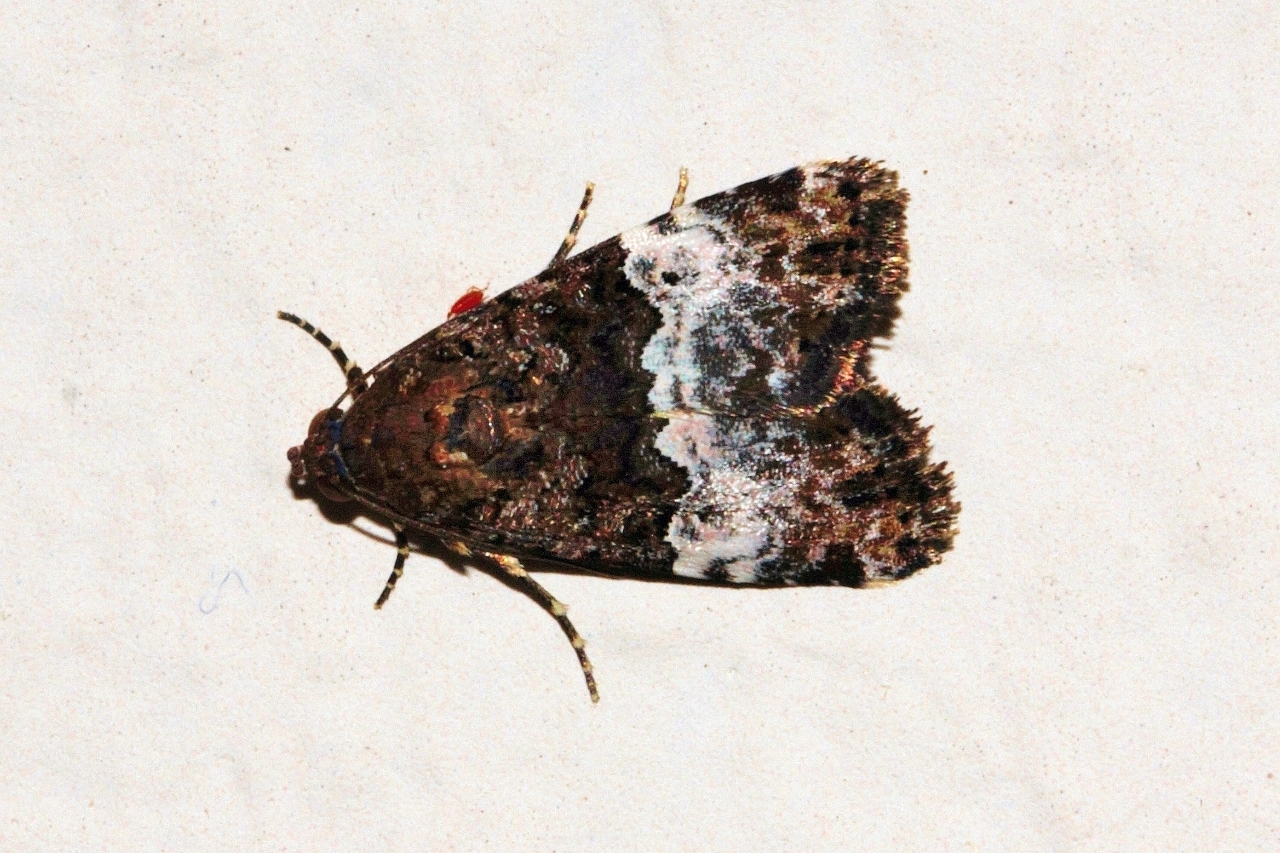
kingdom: Animalia
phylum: Arthropoda
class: Insecta
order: Lepidoptera
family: Noctuidae
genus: Eustrotia
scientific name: Eustrotia decissima
